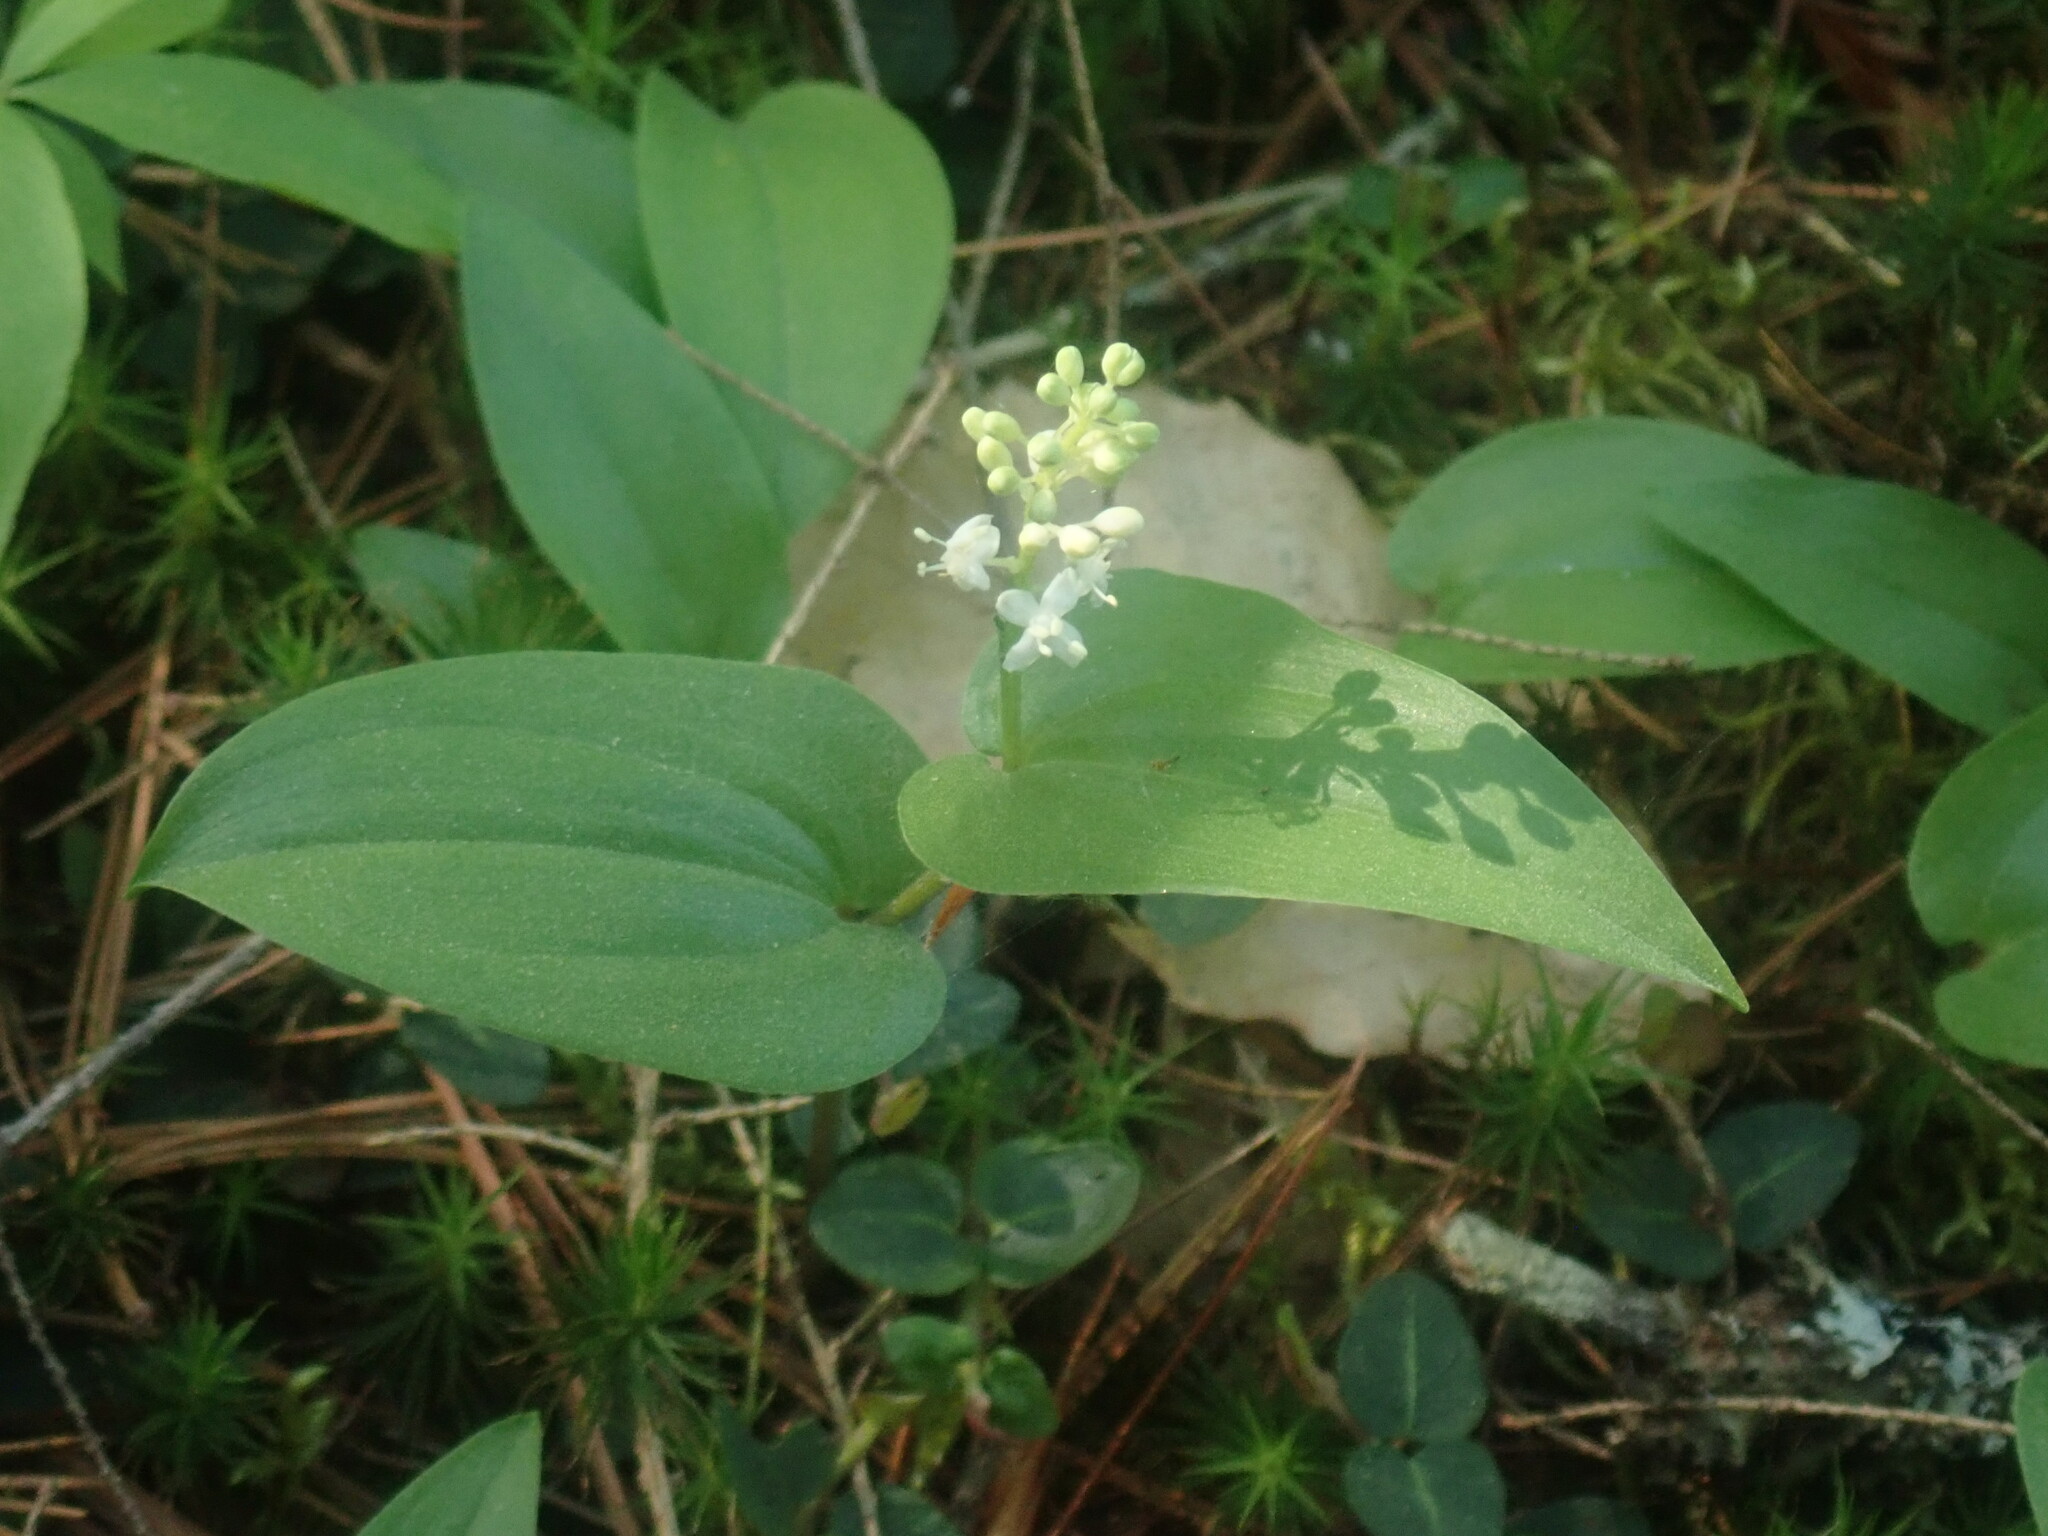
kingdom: Plantae
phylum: Tracheophyta
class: Liliopsida
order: Asparagales
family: Asparagaceae
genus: Maianthemum
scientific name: Maianthemum canadense
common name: False lily-of-the-valley
